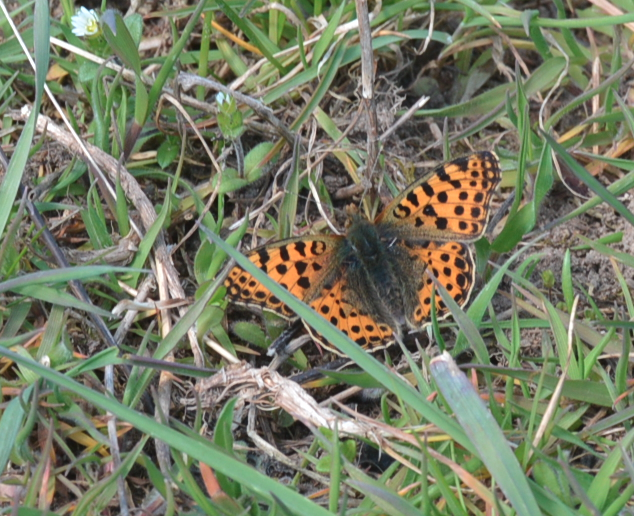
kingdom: Animalia
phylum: Arthropoda
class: Insecta
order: Lepidoptera
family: Nymphalidae
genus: Issoria
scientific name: Issoria lathonia
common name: Queen of spain fritillary
